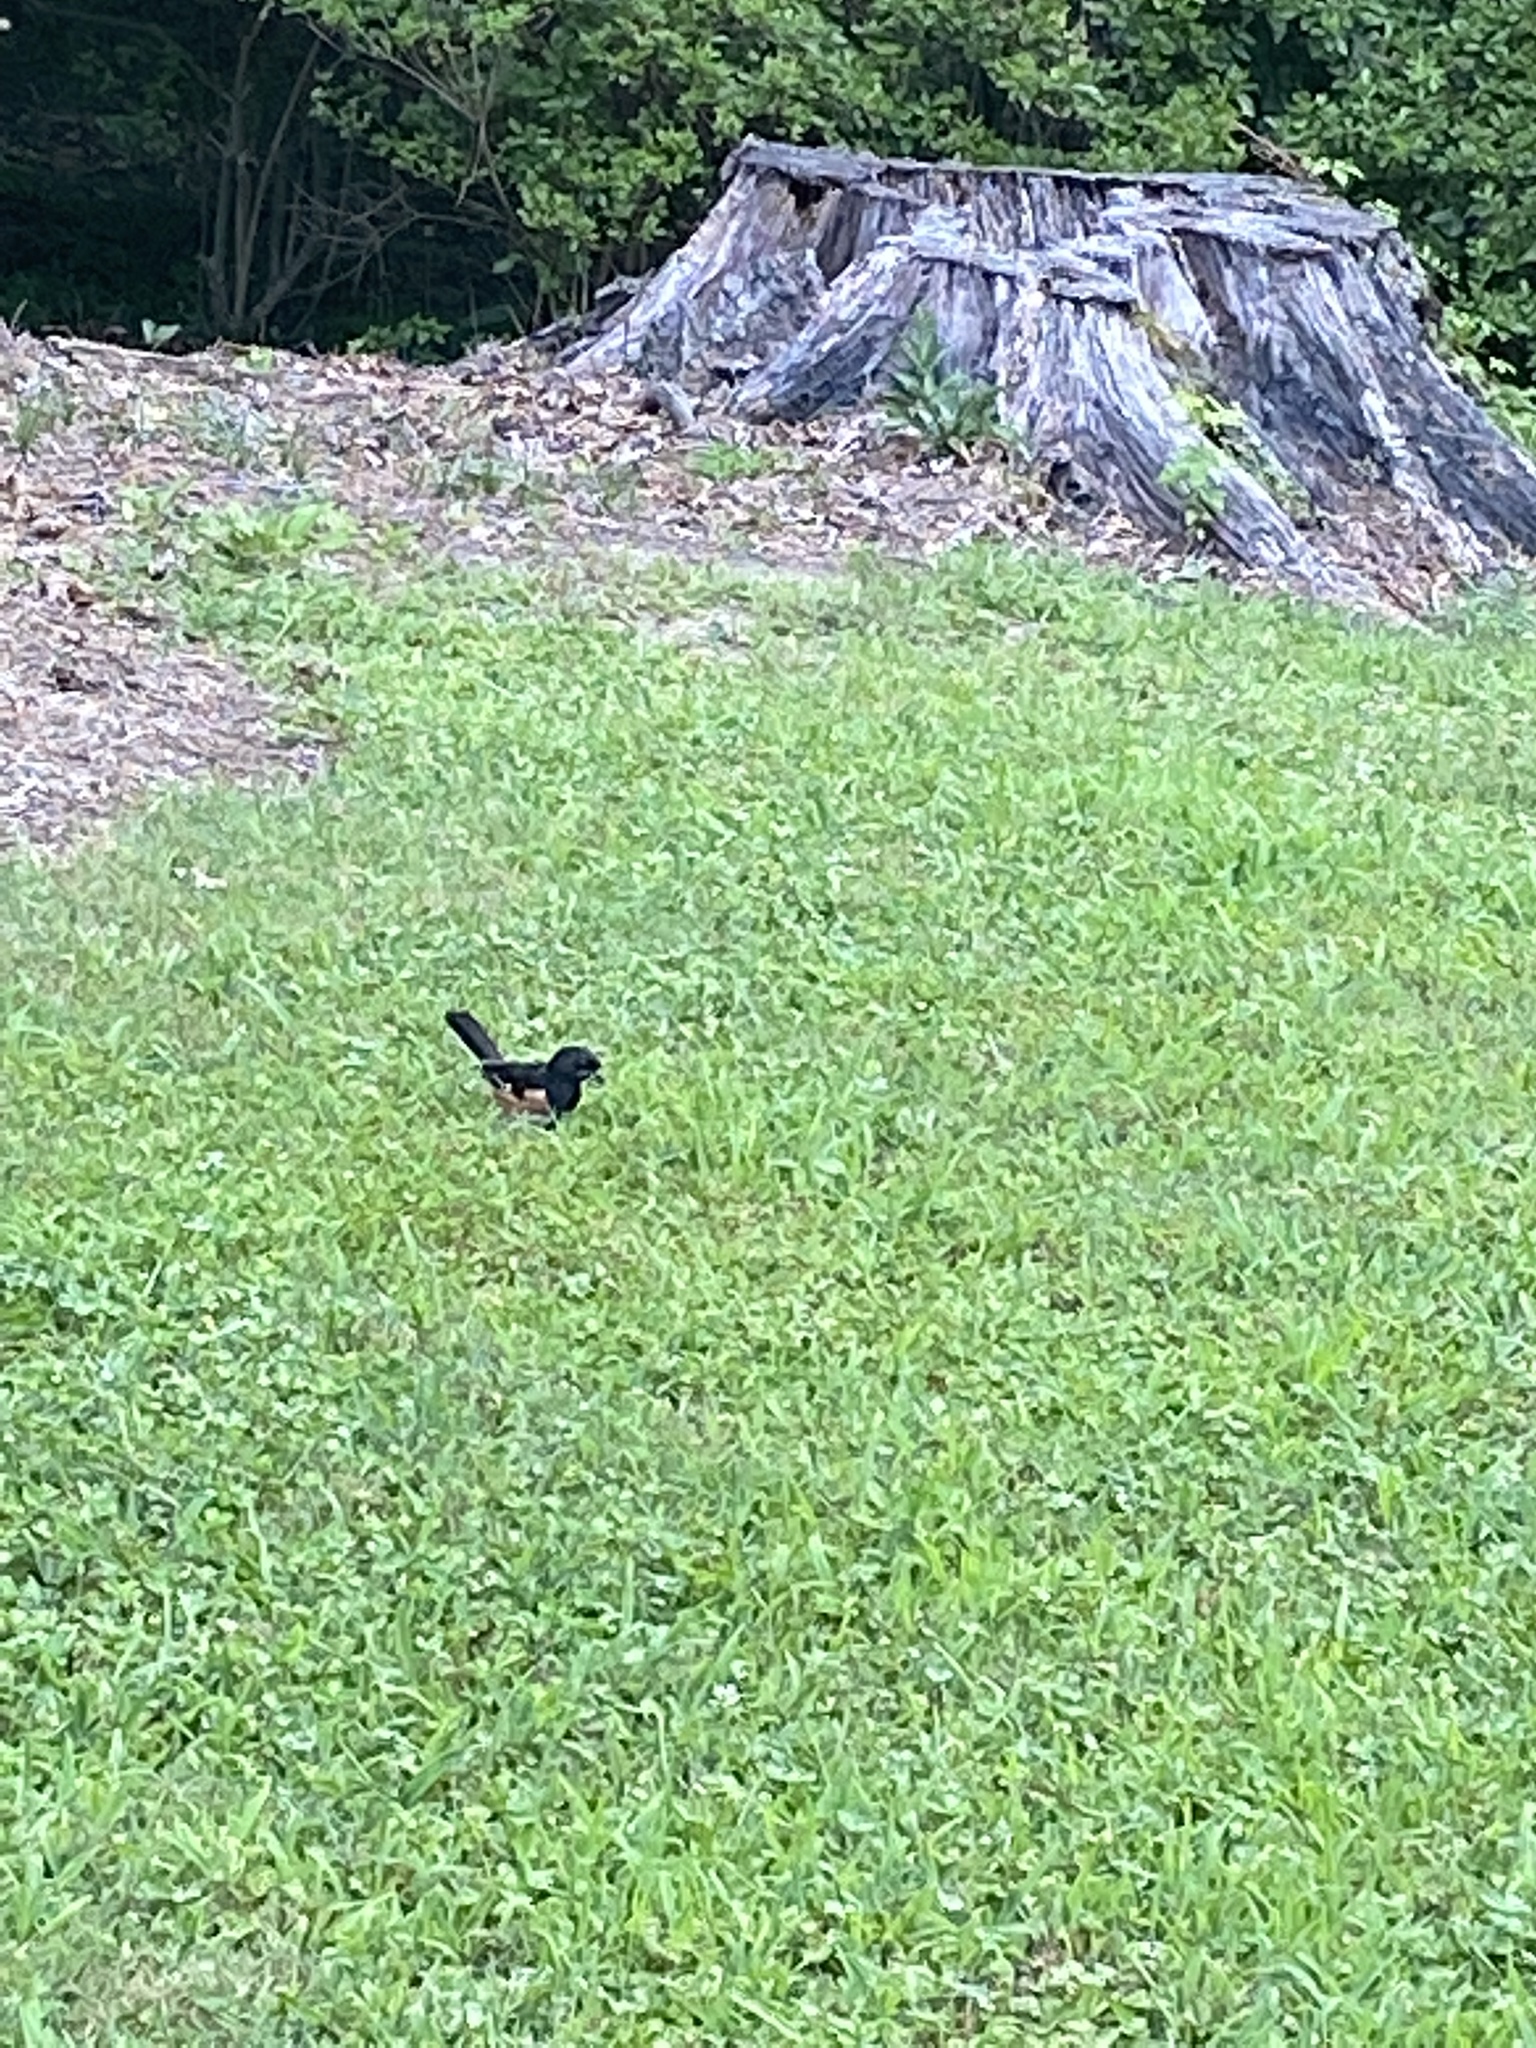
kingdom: Animalia
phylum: Chordata
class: Aves
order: Passeriformes
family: Passerellidae
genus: Pipilo
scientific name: Pipilo erythrophthalmus
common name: Eastern towhee
